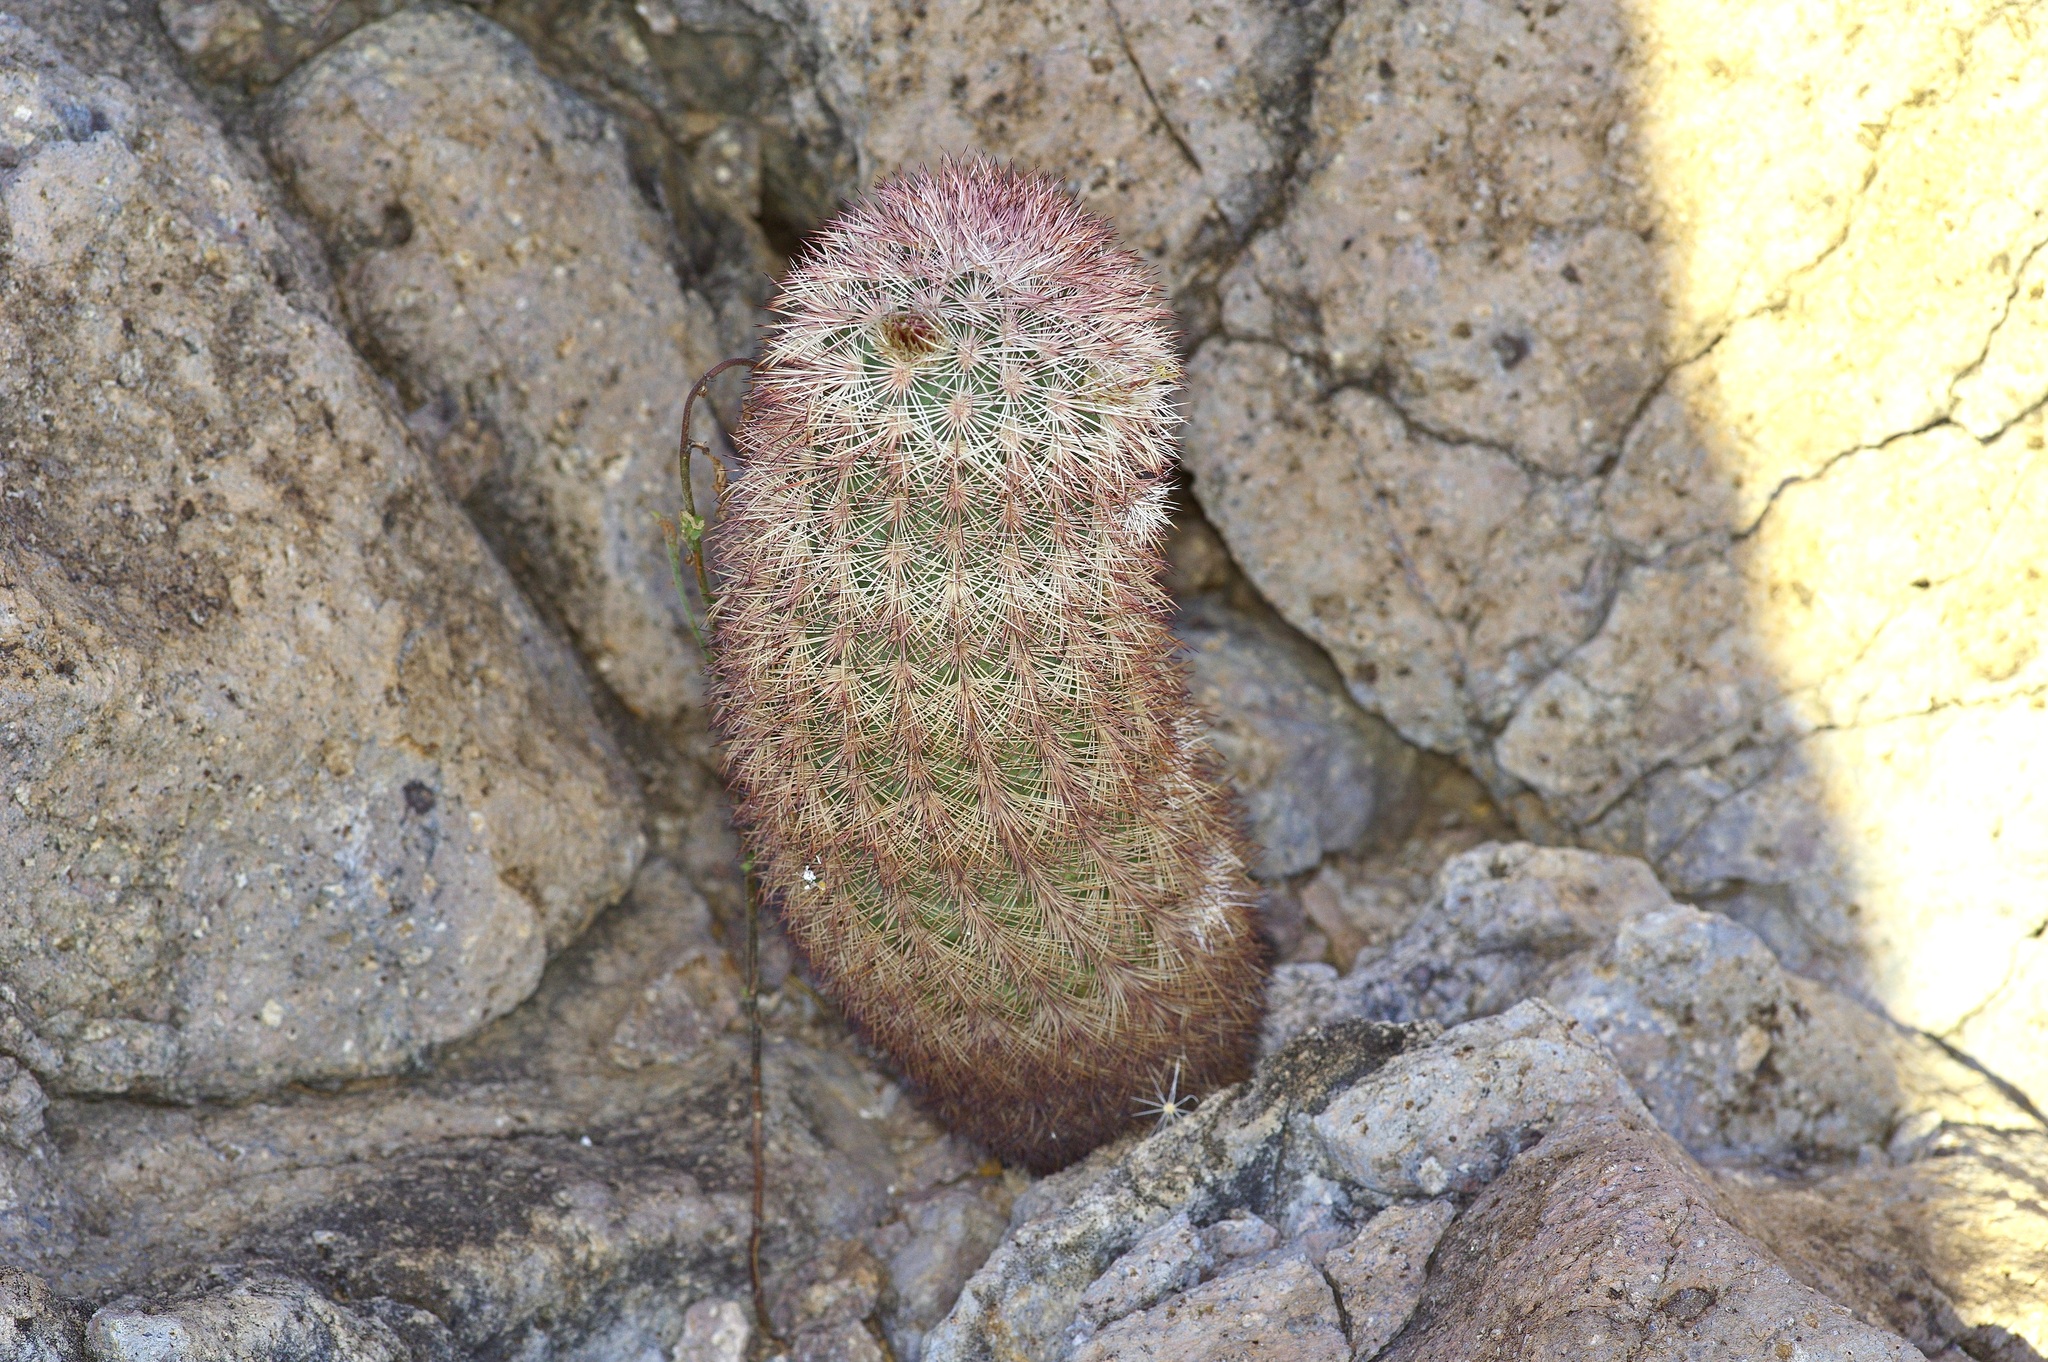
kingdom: Plantae
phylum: Tracheophyta
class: Magnoliopsida
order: Caryophyllales
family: Cactaceae
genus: Echinocereus
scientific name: Echinocereus dasyacanthus
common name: Spiny hedgehog cactus
